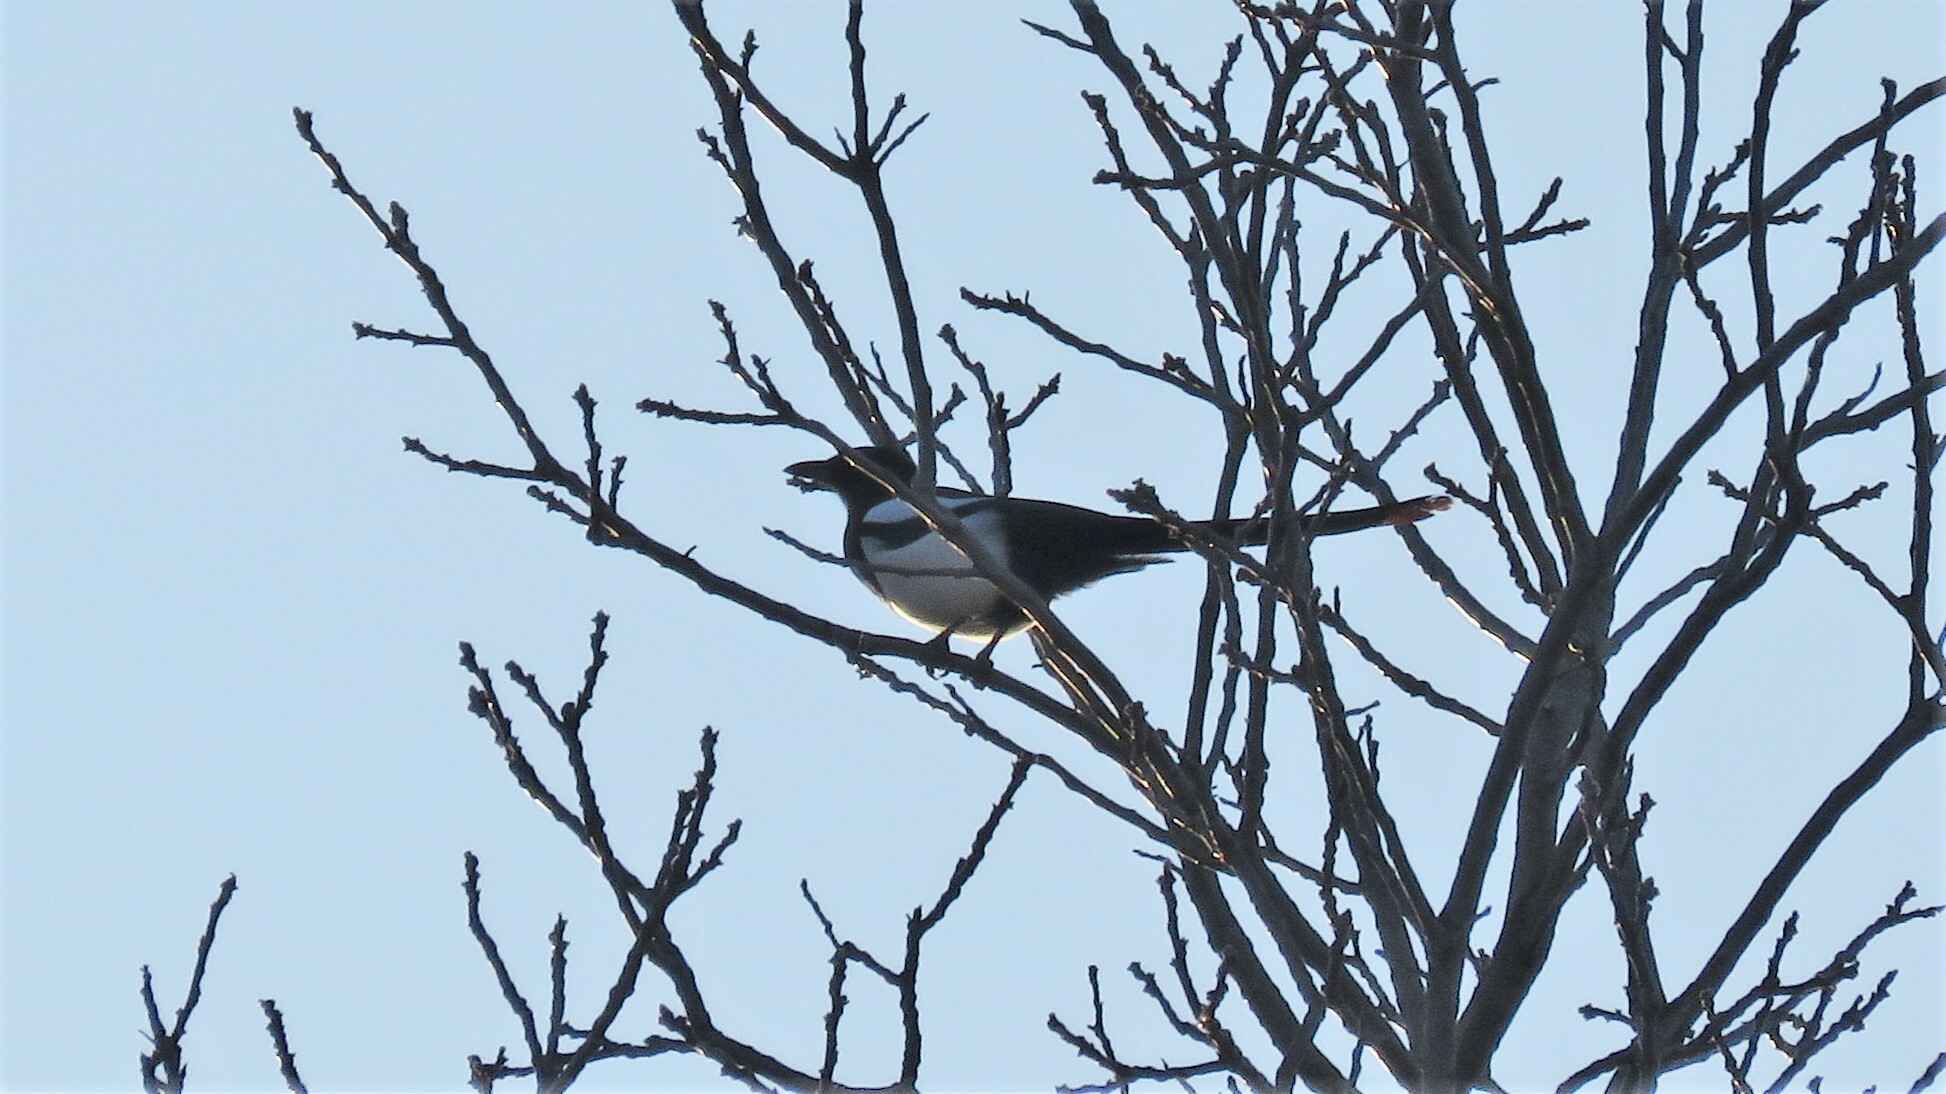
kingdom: Animalia
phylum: Chordata
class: Aves
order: Passeriformes
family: Corvidae
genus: Pica
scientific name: Pica hudsonia
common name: Black-billed magpie
